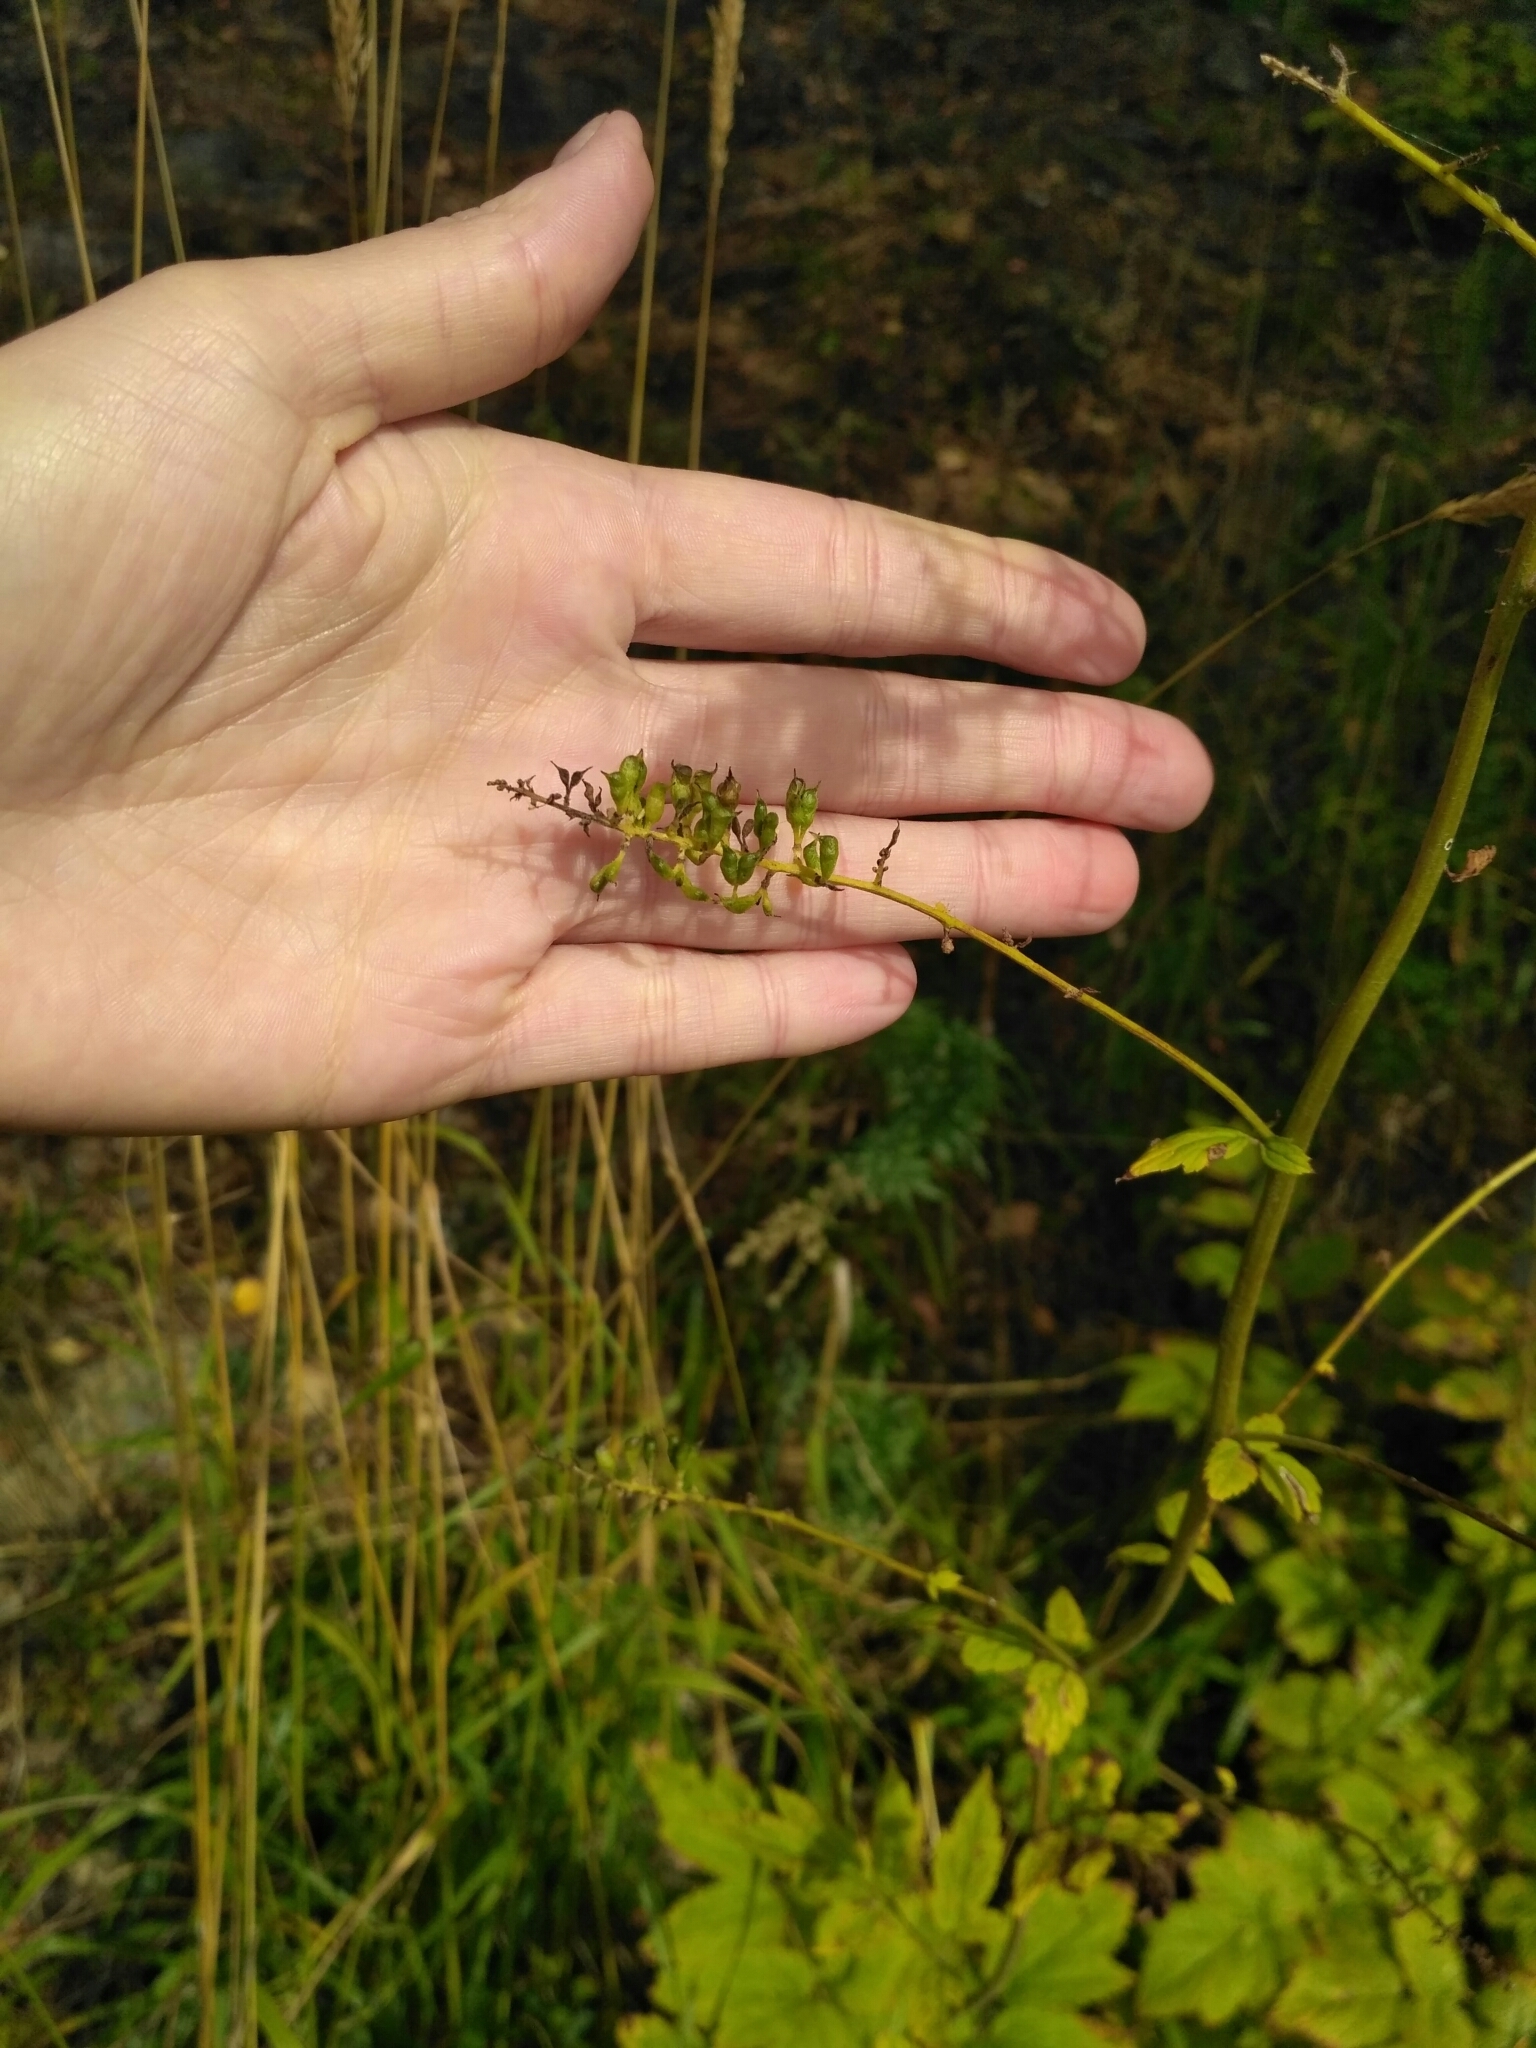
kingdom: Plantae
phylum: Tracheophyta
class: Magnoliopsida
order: Ranunculales
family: Ranunculaceae
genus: Actaea
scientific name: Actaea cimicifuga
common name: Chinese cimicifuga
